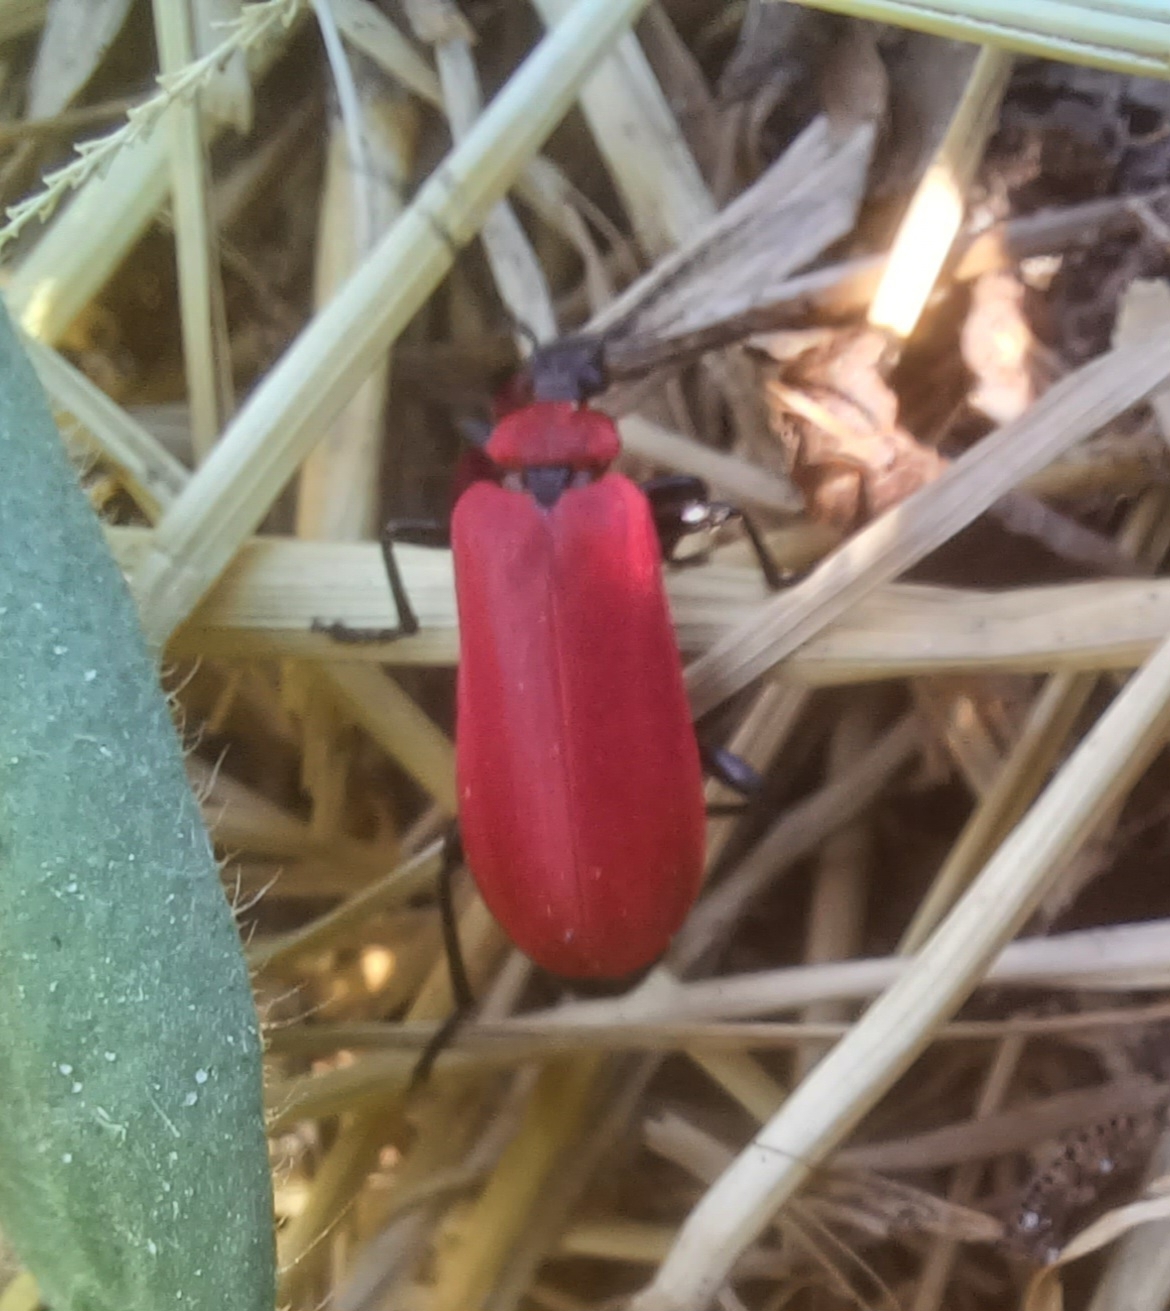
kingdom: Animalia
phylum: Arthropoda
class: Insecta
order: Coleoptera
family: Pyrochroidae
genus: Pyrochroa
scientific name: Pyrochroa coccinea
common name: Black-headed cardinal beetle
